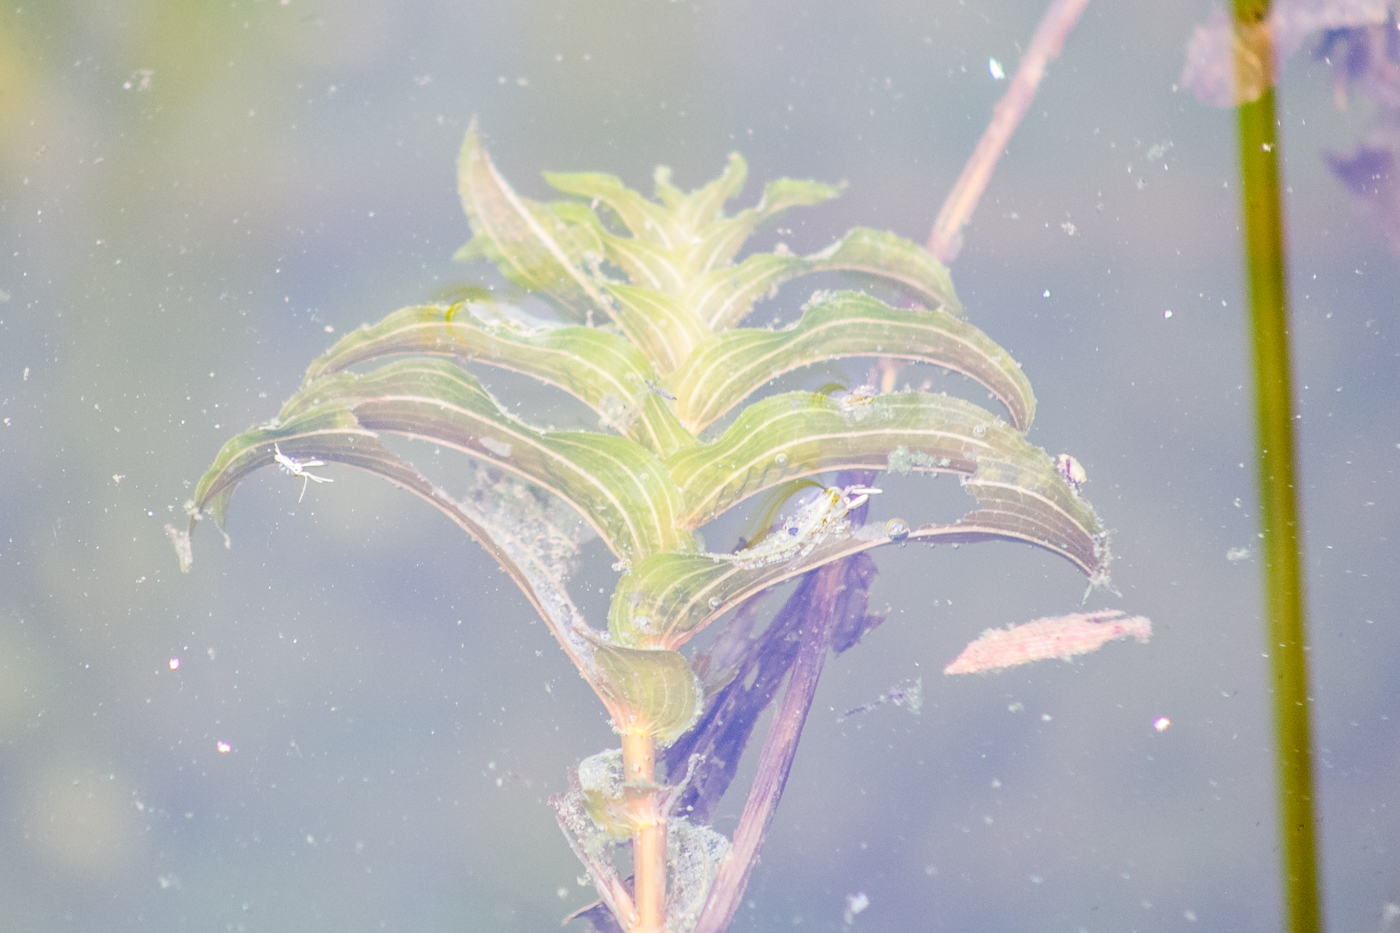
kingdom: Plantae
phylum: Tracheophyta
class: Liliopsida
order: Alismatales
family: Potamogetonaceae
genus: Potamogeton
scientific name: Potamogeton perfoliatus
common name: Perfoliate pondweed
